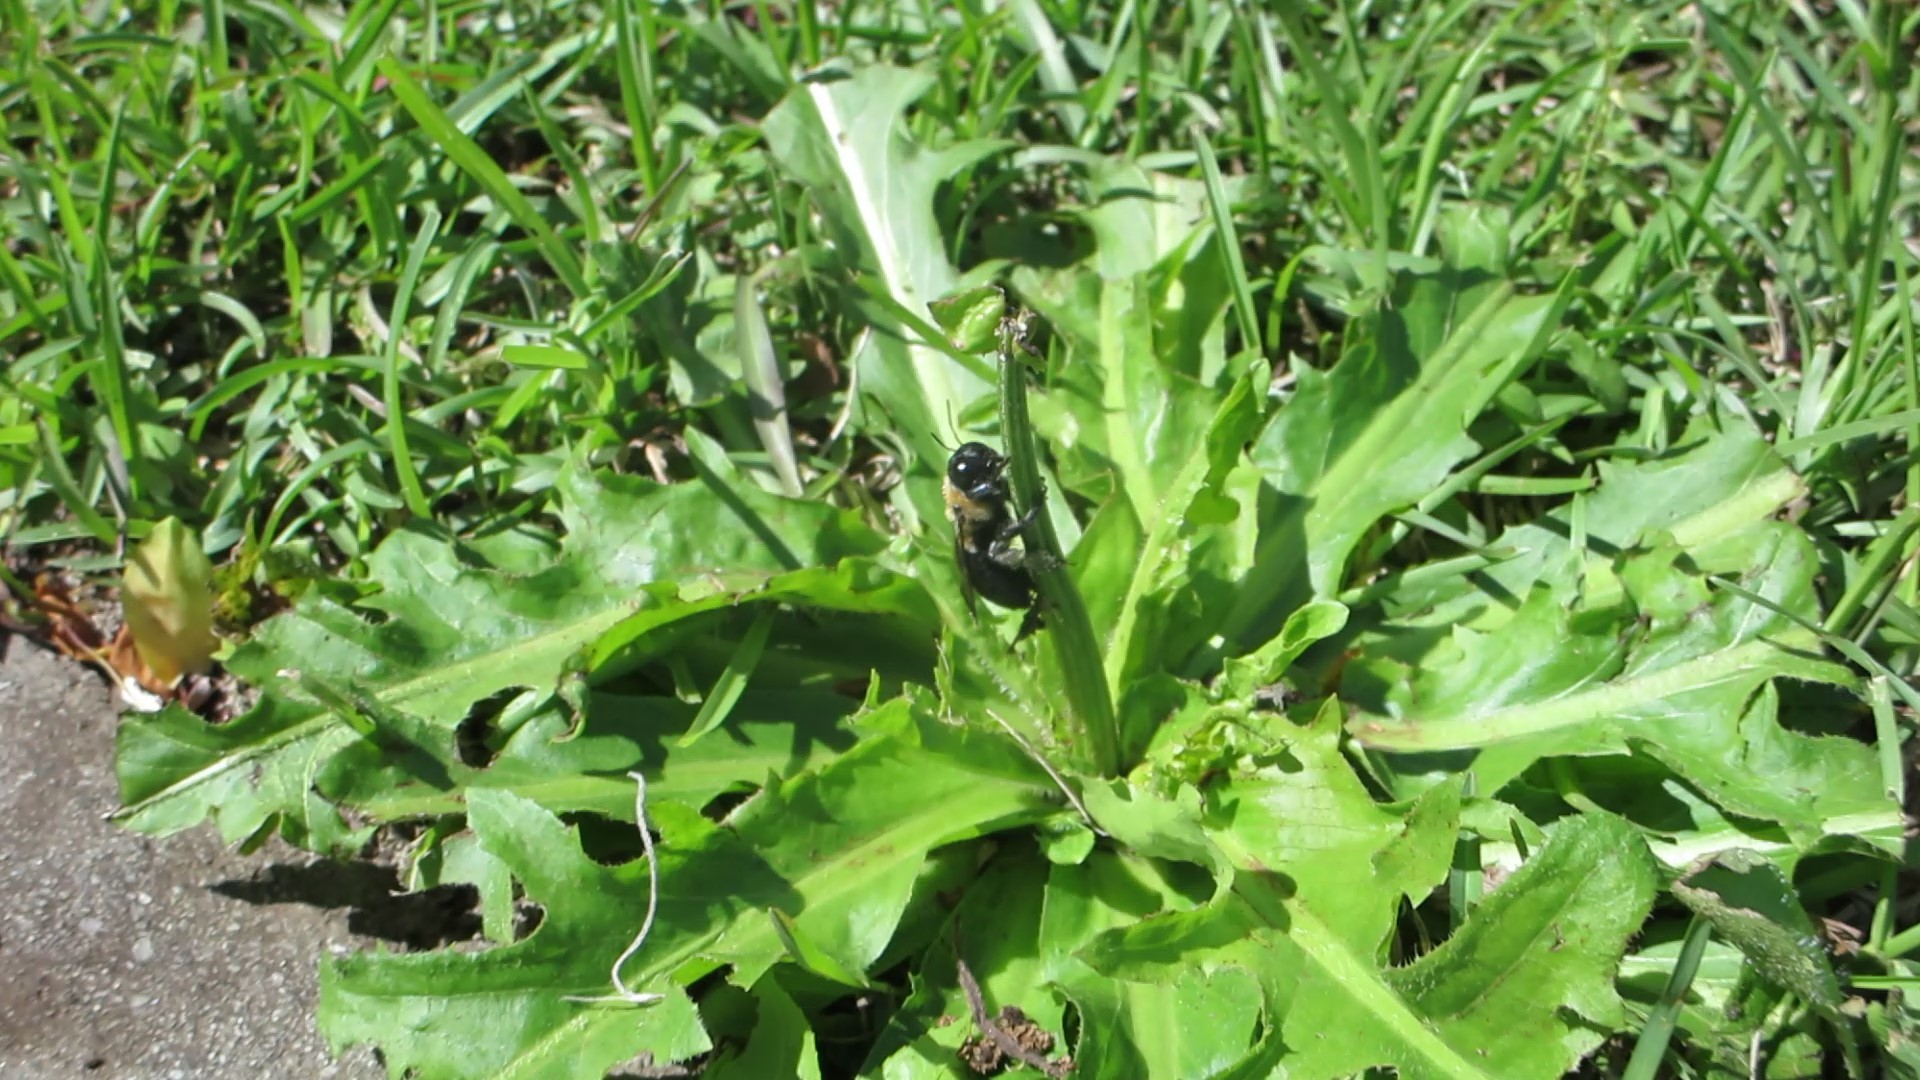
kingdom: Animalia
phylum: Arthropoda
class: Insecta
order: Hymenoptera
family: Apidae
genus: Xylocopa
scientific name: Xylocopa virginica
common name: Carpenter bee
